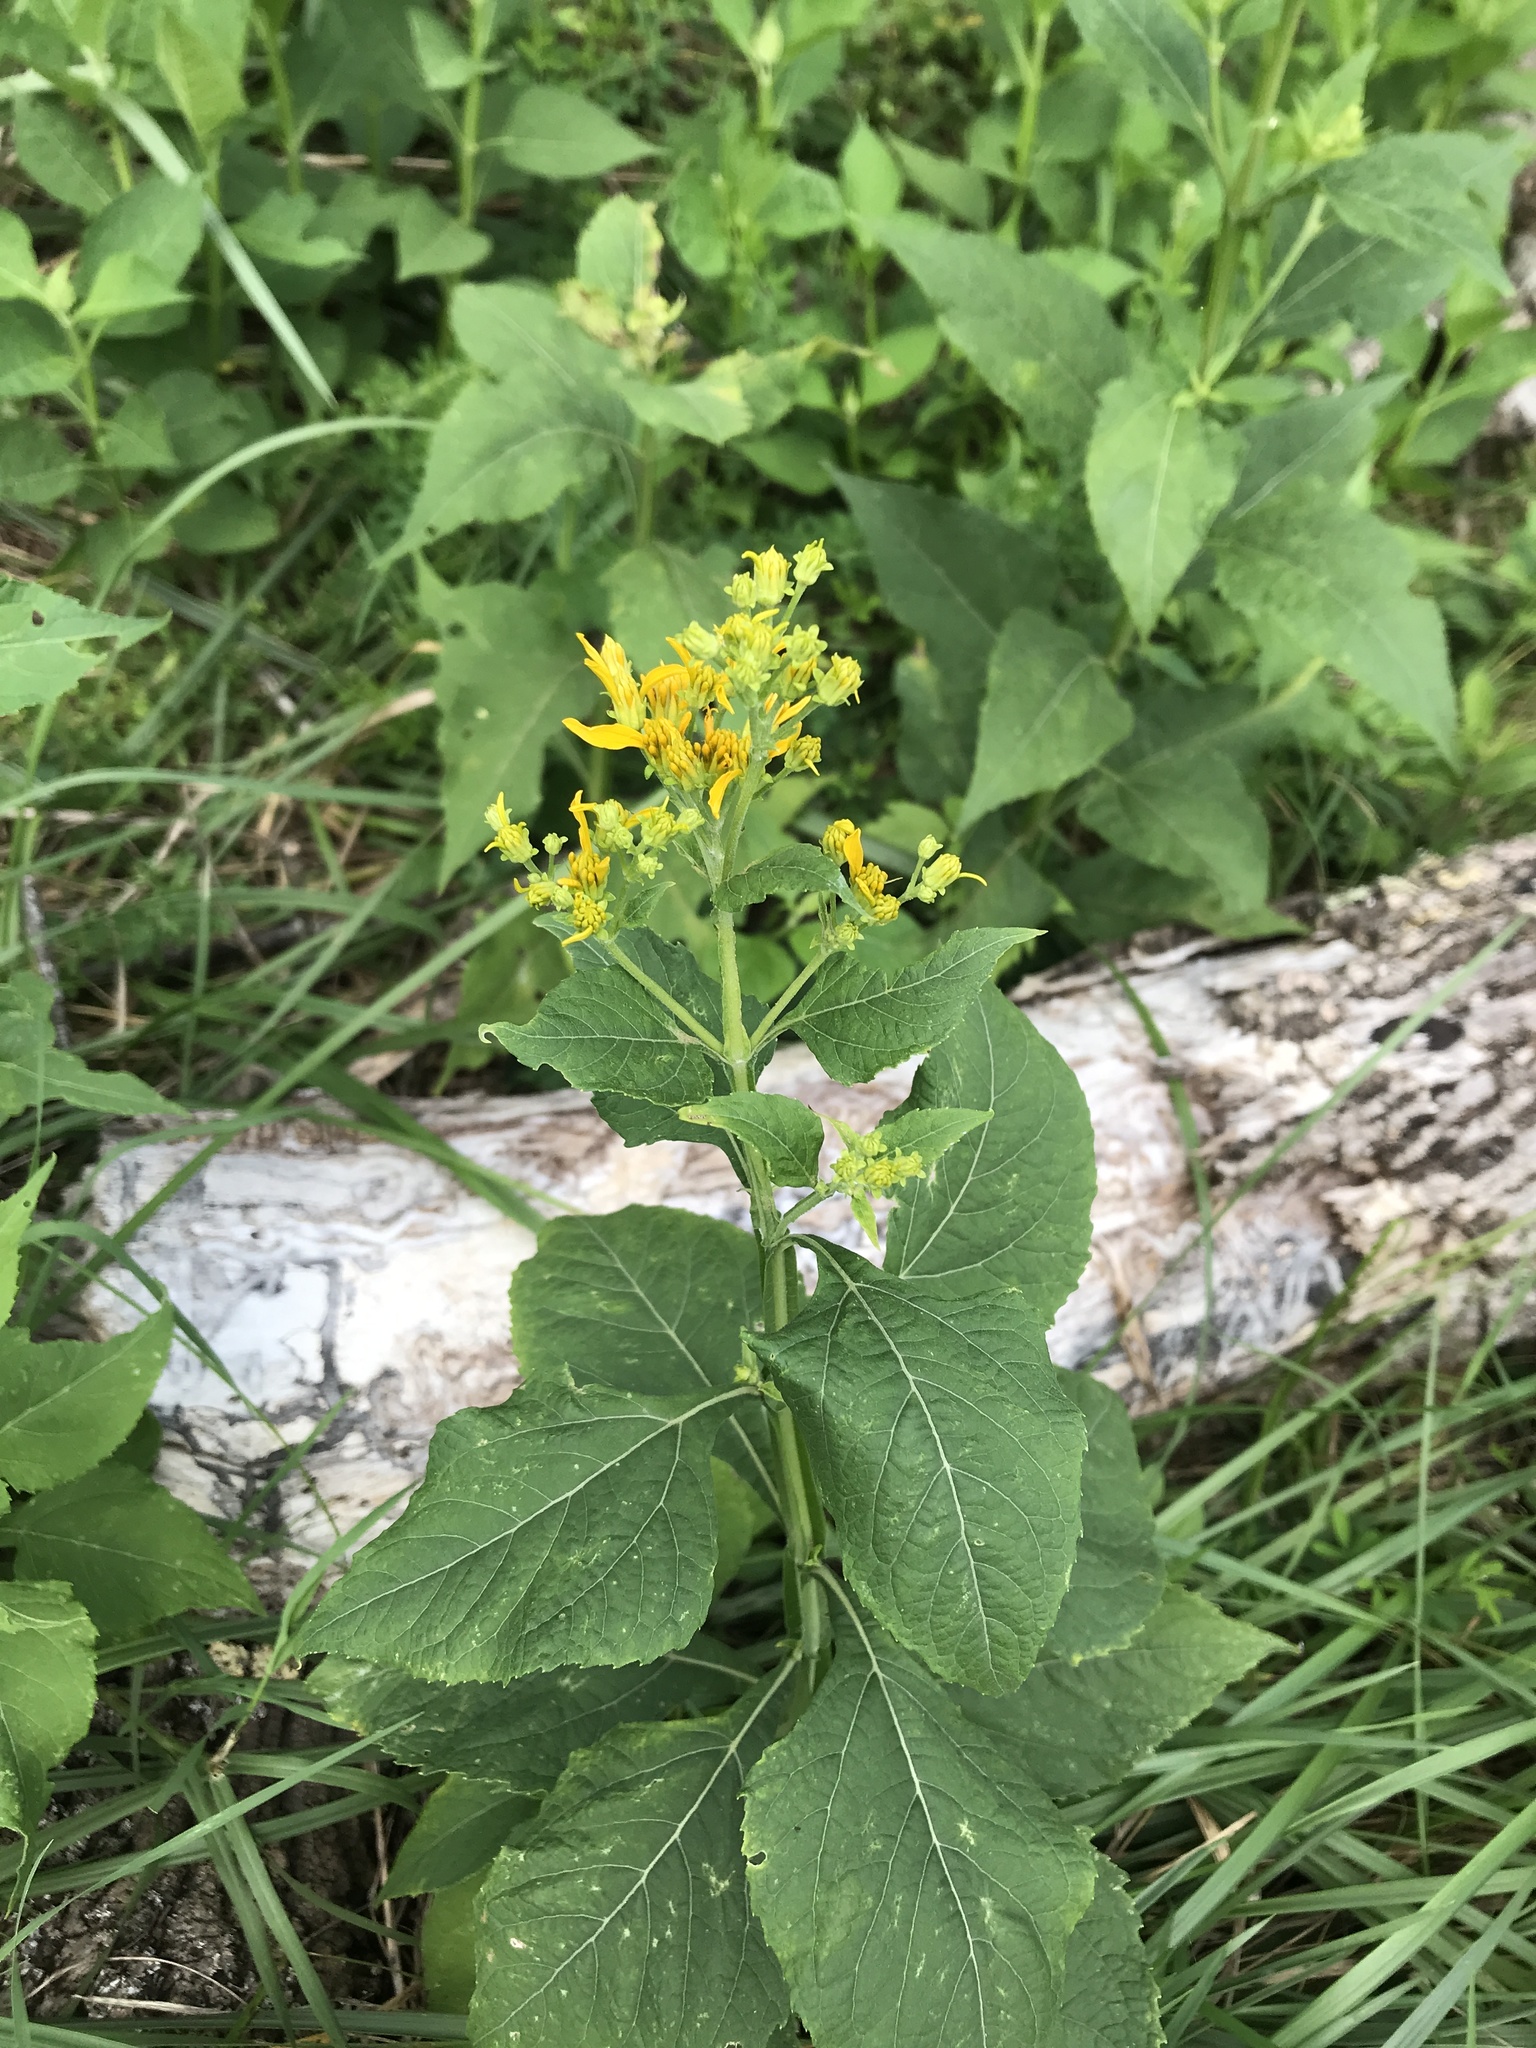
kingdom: Plantae
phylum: Tracheophyta
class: Magnoliopsida
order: Asterales
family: Asteraceae
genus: Verbesina
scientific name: Verbesina occidentalis
